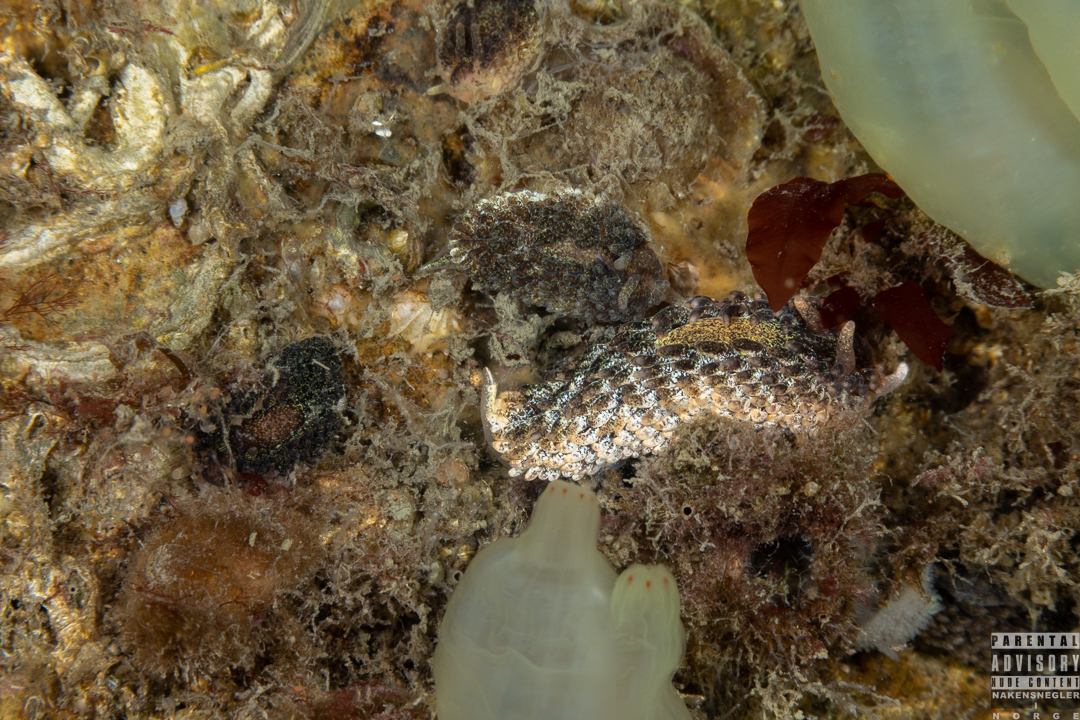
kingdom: Animalia
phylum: Mollusca
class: Gastropoda
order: Nudibranchia
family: Aeolidiidae
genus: Aeolidia
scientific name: Aeolidia papillosa
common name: Common grey sea slug
